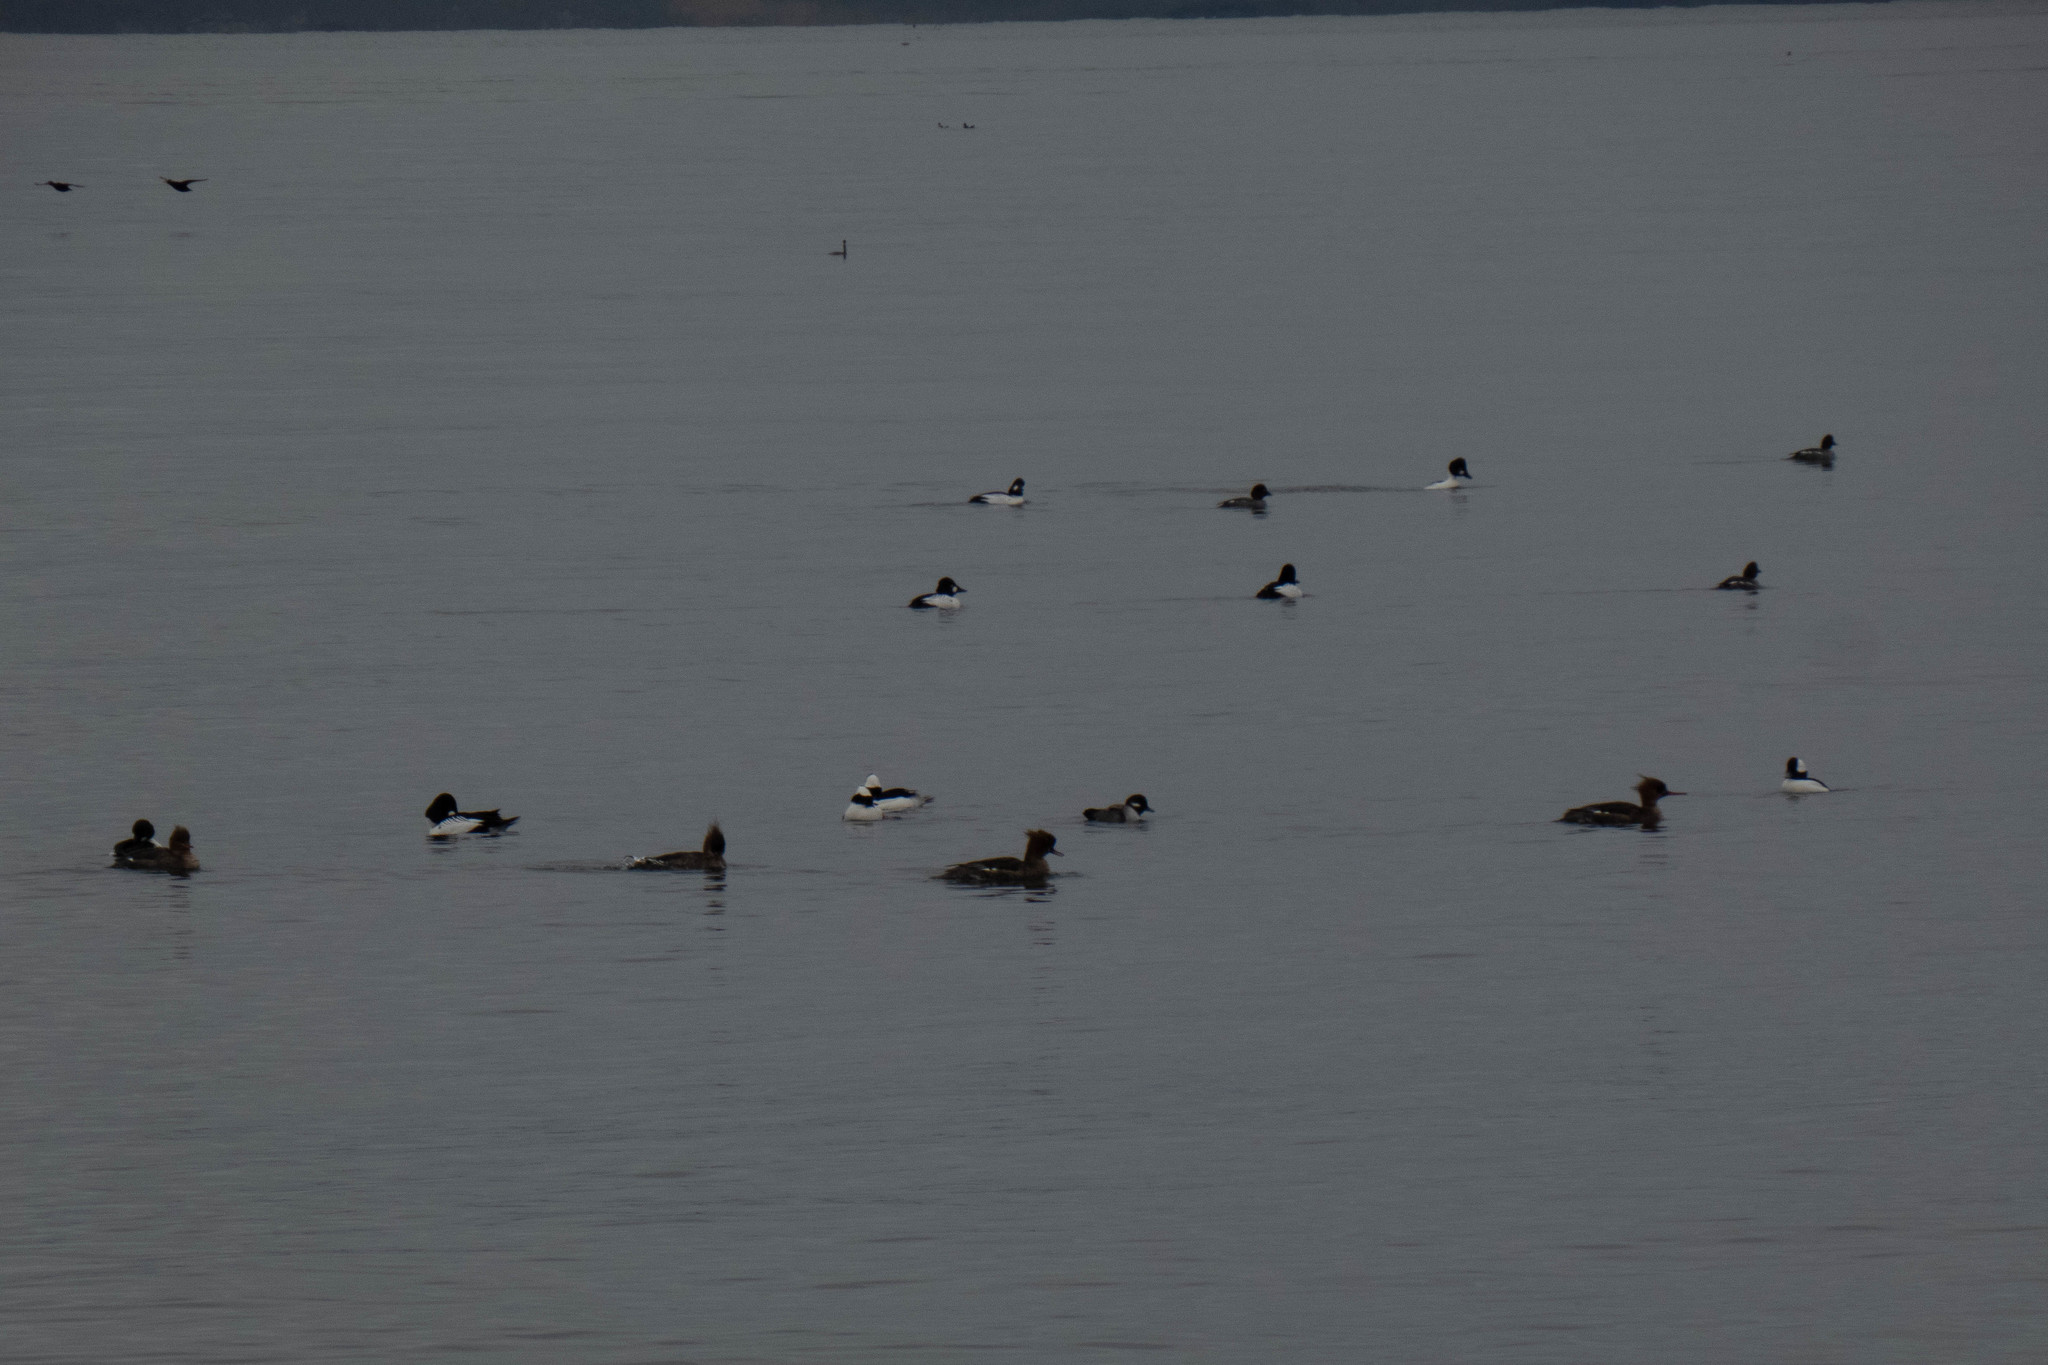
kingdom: Animalia
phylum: Chordata
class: Aves
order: Anseriformes
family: Anatidae
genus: Bucephala
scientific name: Bucephala clangula
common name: Common goldeneye
